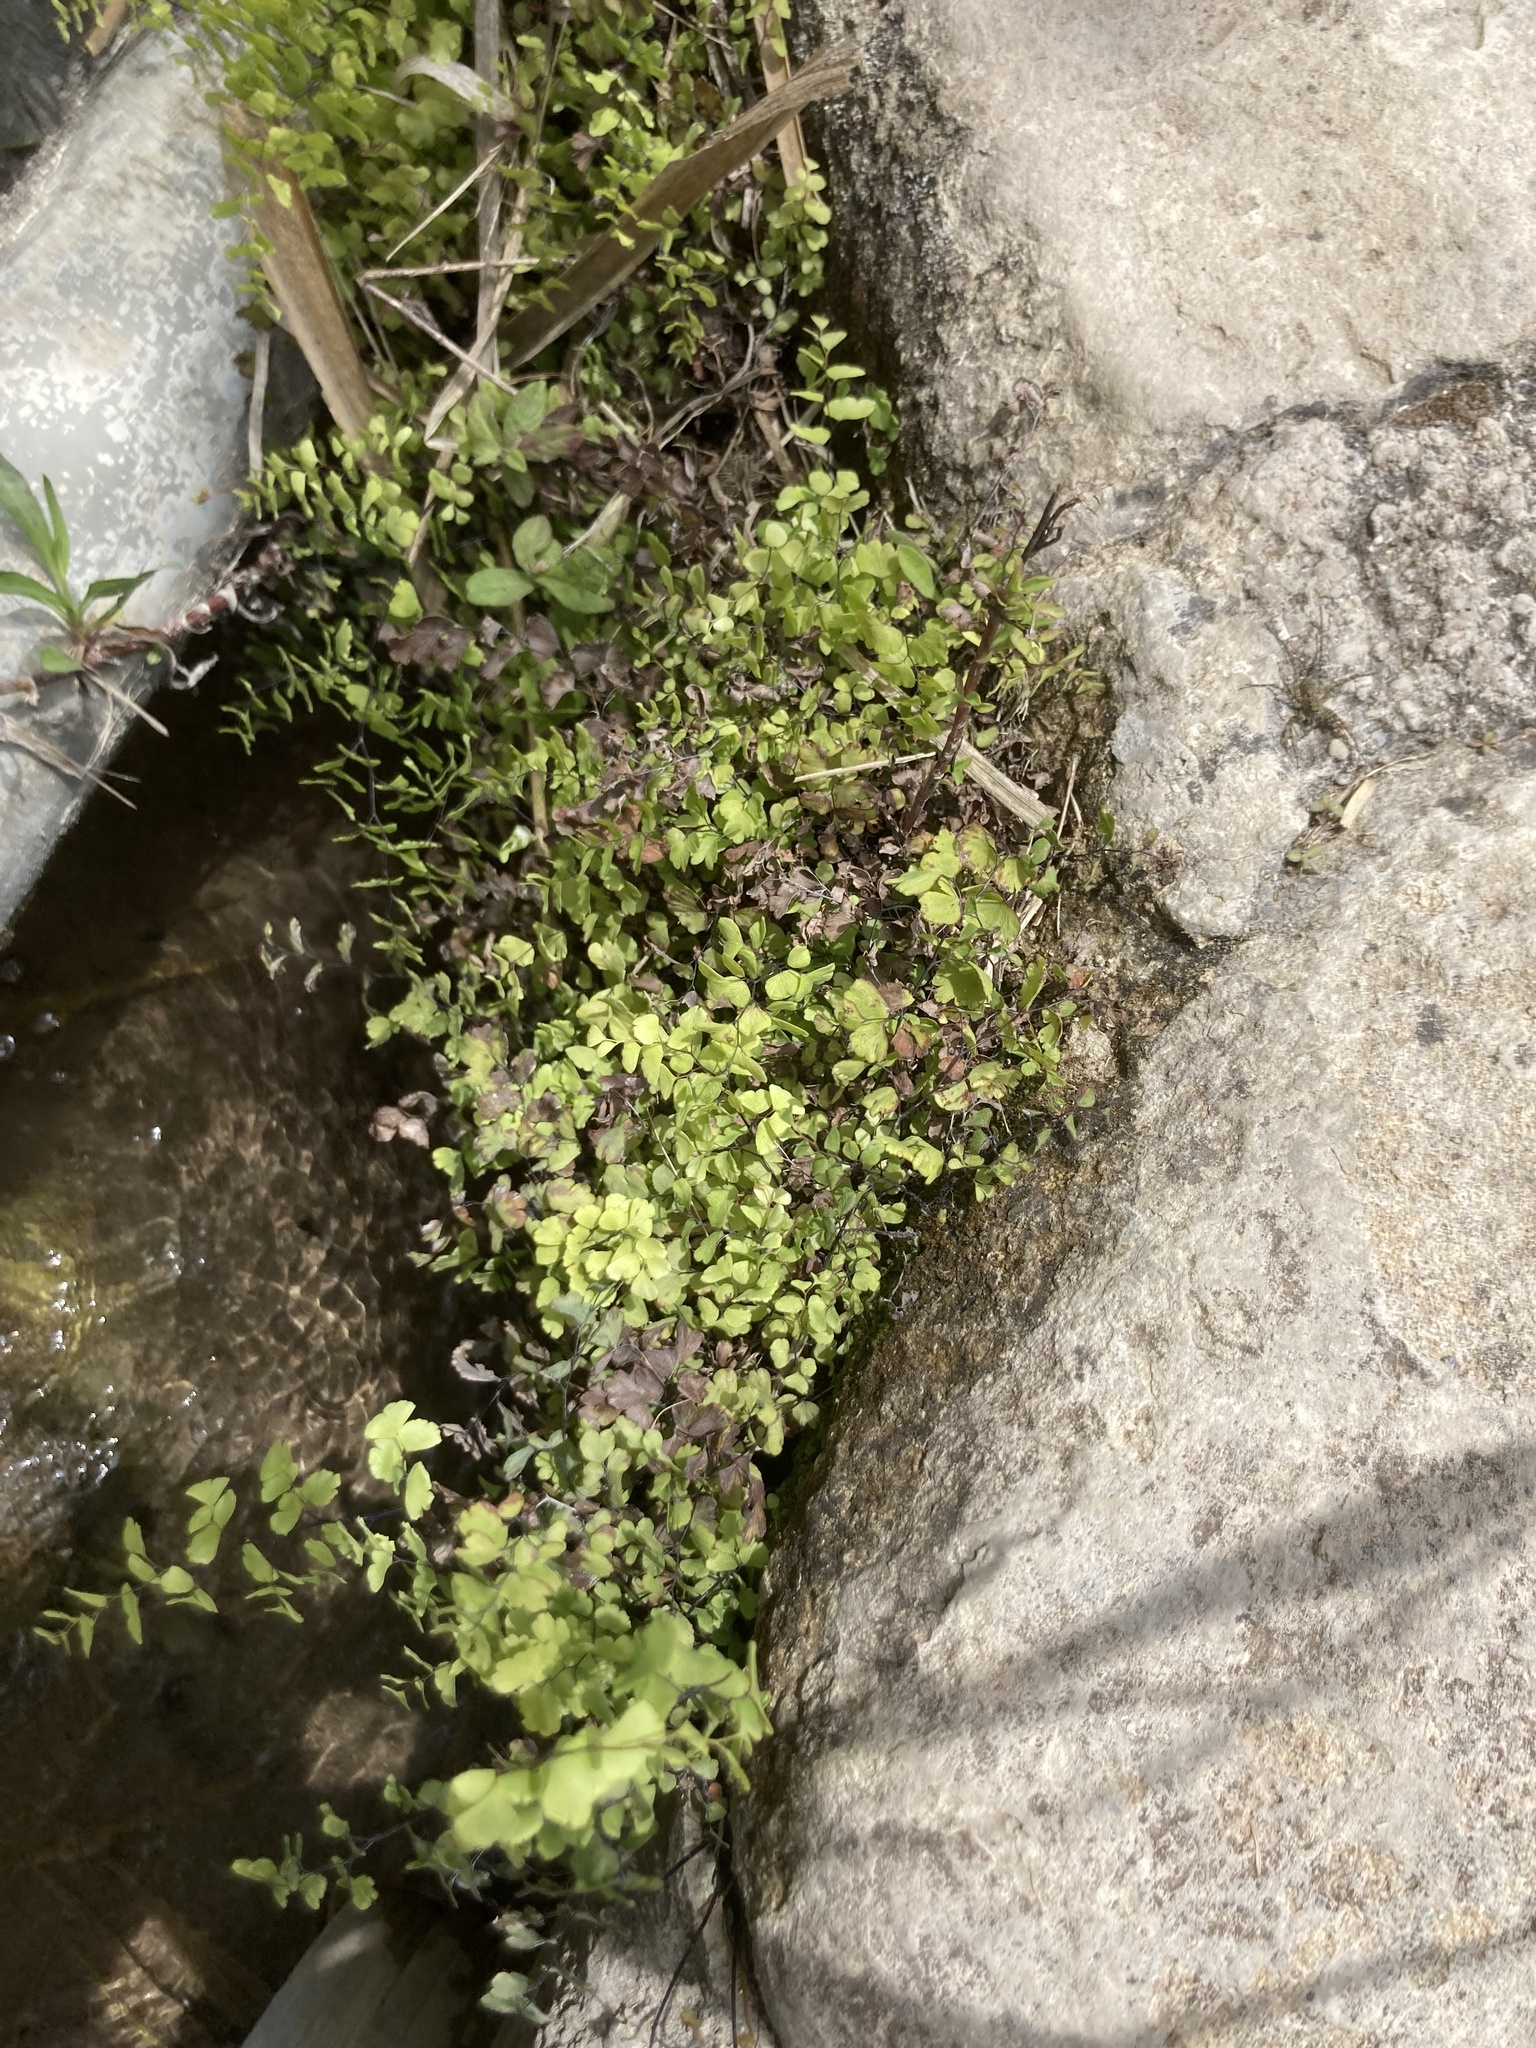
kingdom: Plantae
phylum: Tracheophyta
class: Polypodiopsida
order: Polypodiales
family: Pteridaceae
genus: Adiantum
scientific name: Adiantum capillus-veneris
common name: Maidenhair fern
